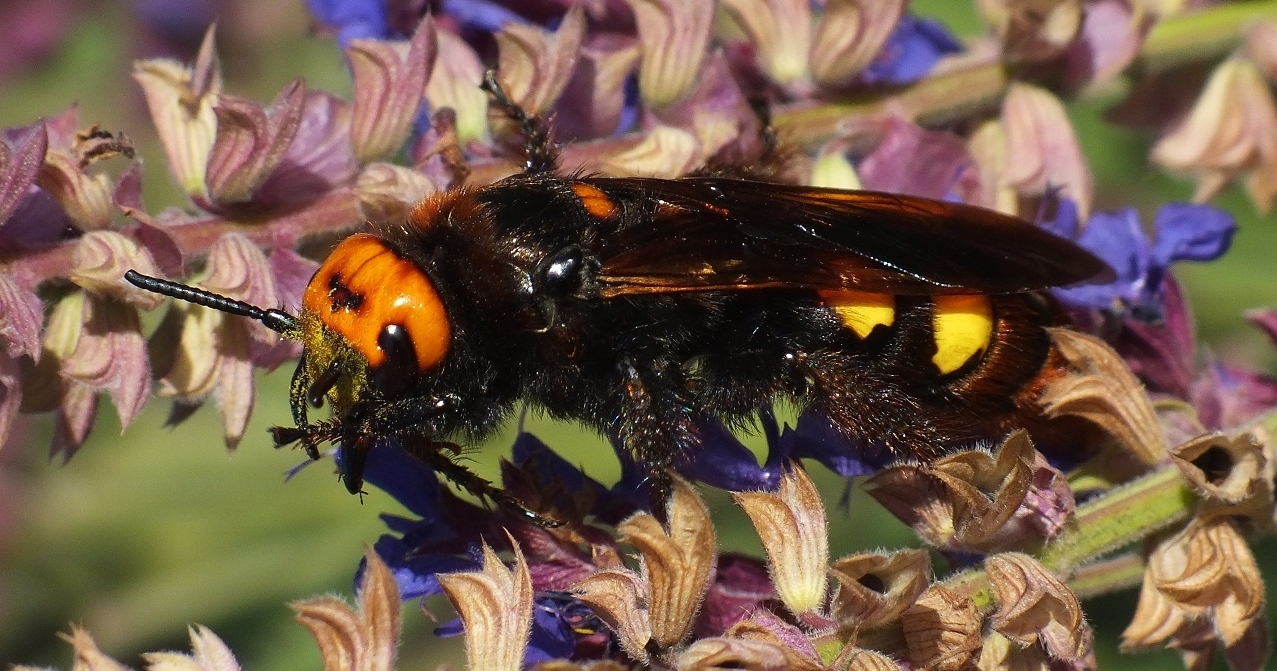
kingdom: Animalia
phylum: Arthropoda
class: Insecta
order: Hymenoptera
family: Scoliidae
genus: Megascolia
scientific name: Megascolia maculata
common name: Mammoth wasp
